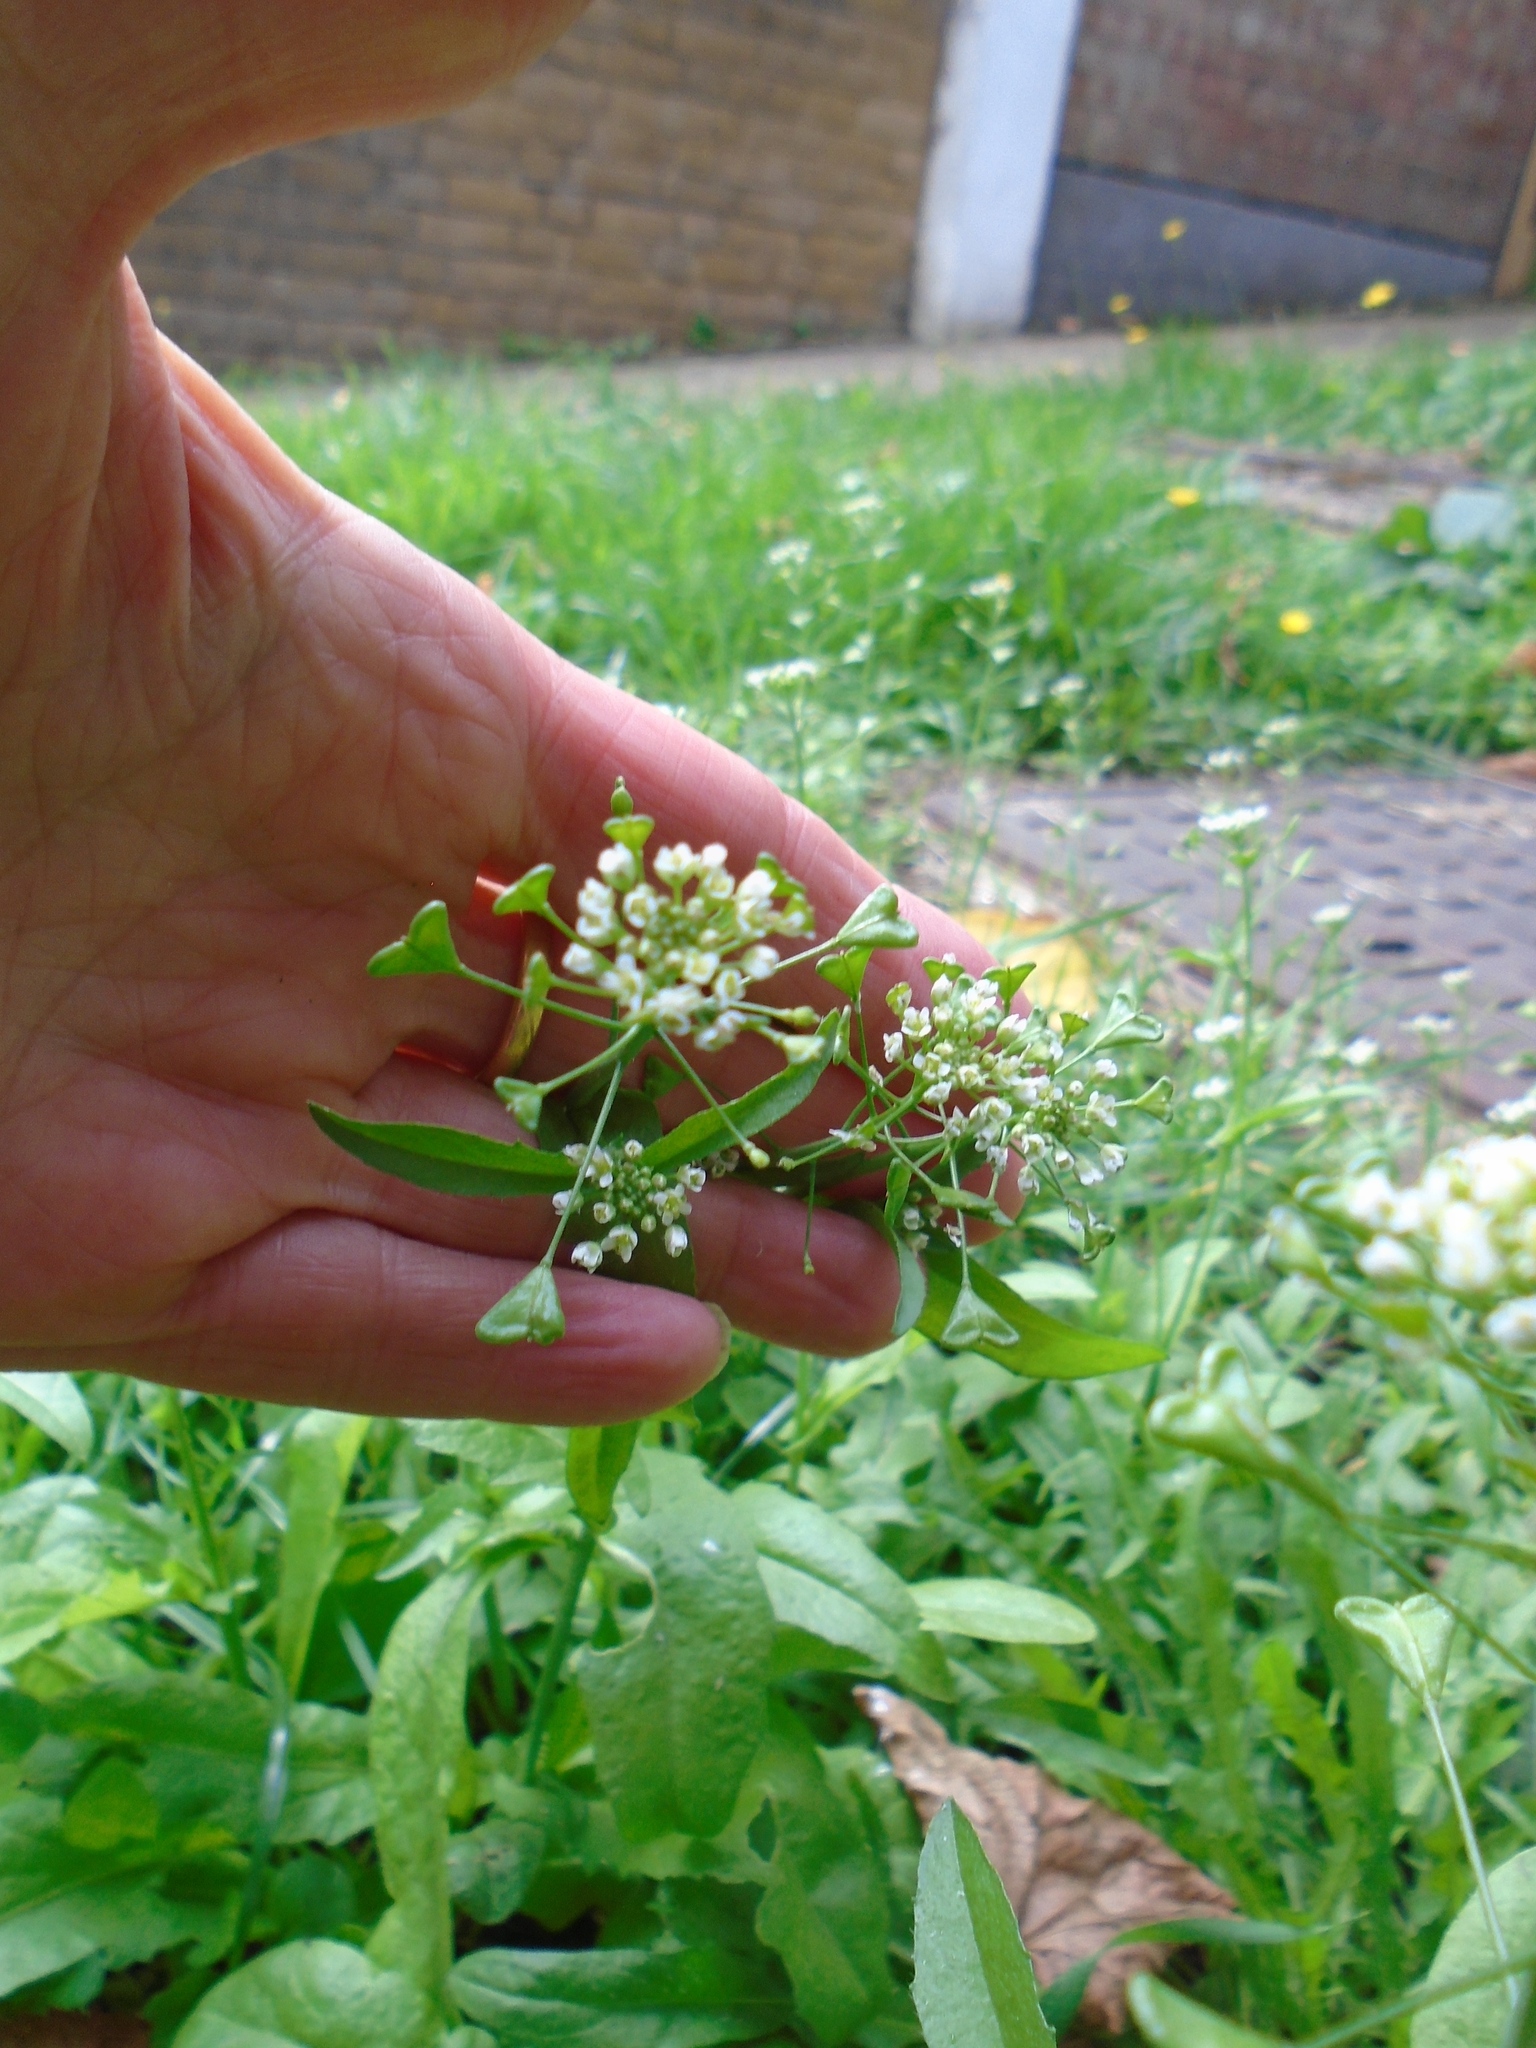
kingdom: Plantae
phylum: Tracheophyta
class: Magnoliopsida
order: Brassicales
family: Brassicaceae
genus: Capsella
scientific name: Capsella bursa-pastoris
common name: Shepherd's purse
